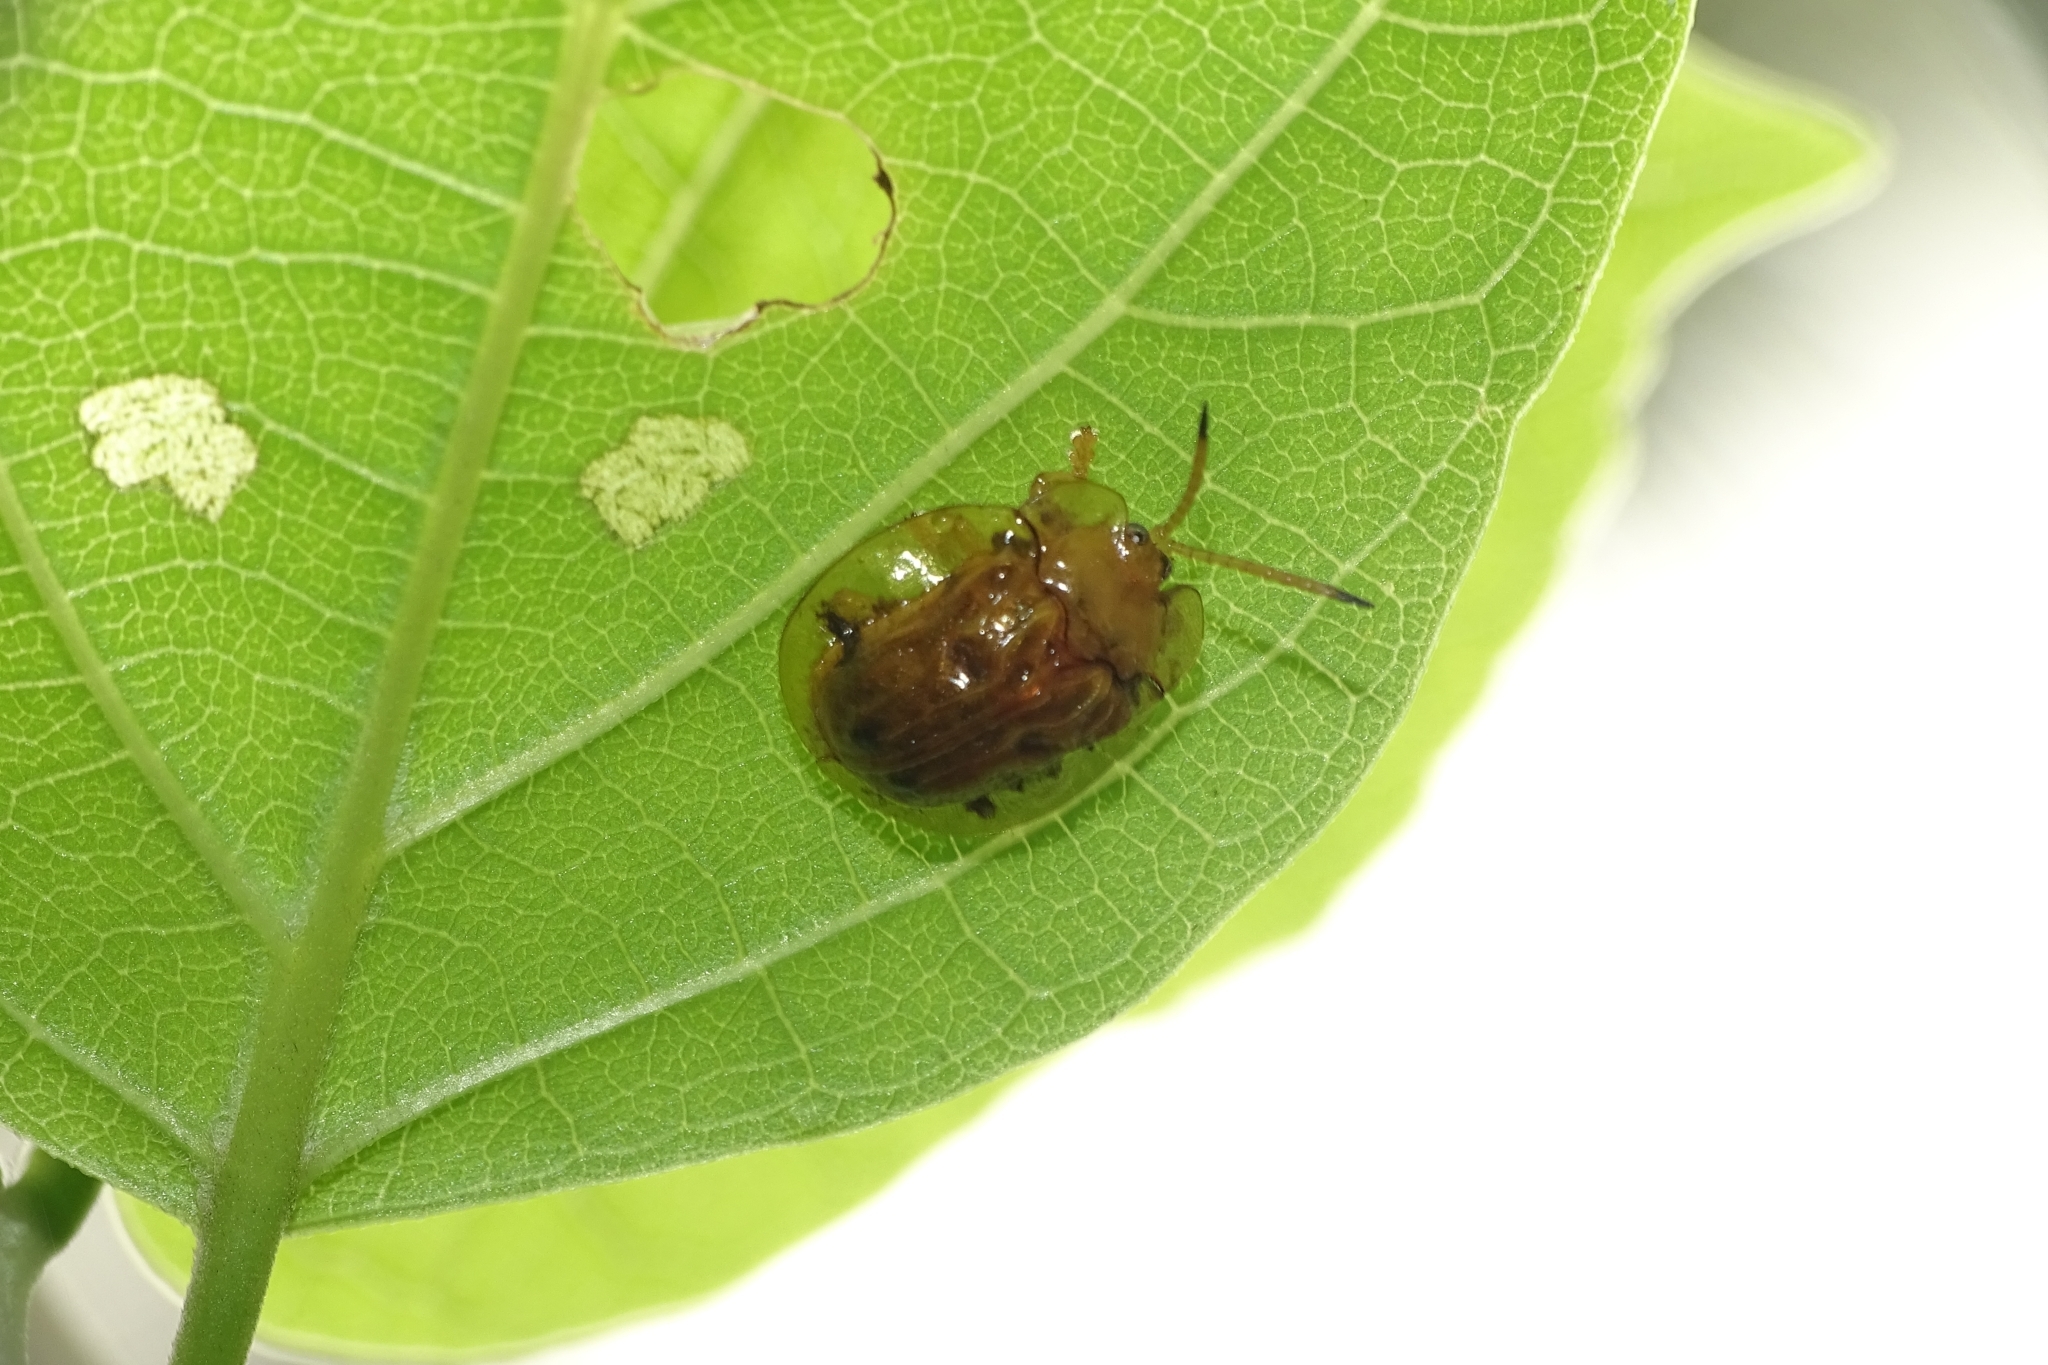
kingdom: Animalia
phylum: Arthropoda
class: Insecta
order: Coleoptera
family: Chrysomelidae
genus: Basiprionota
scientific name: Basiprionota sexmaculata
